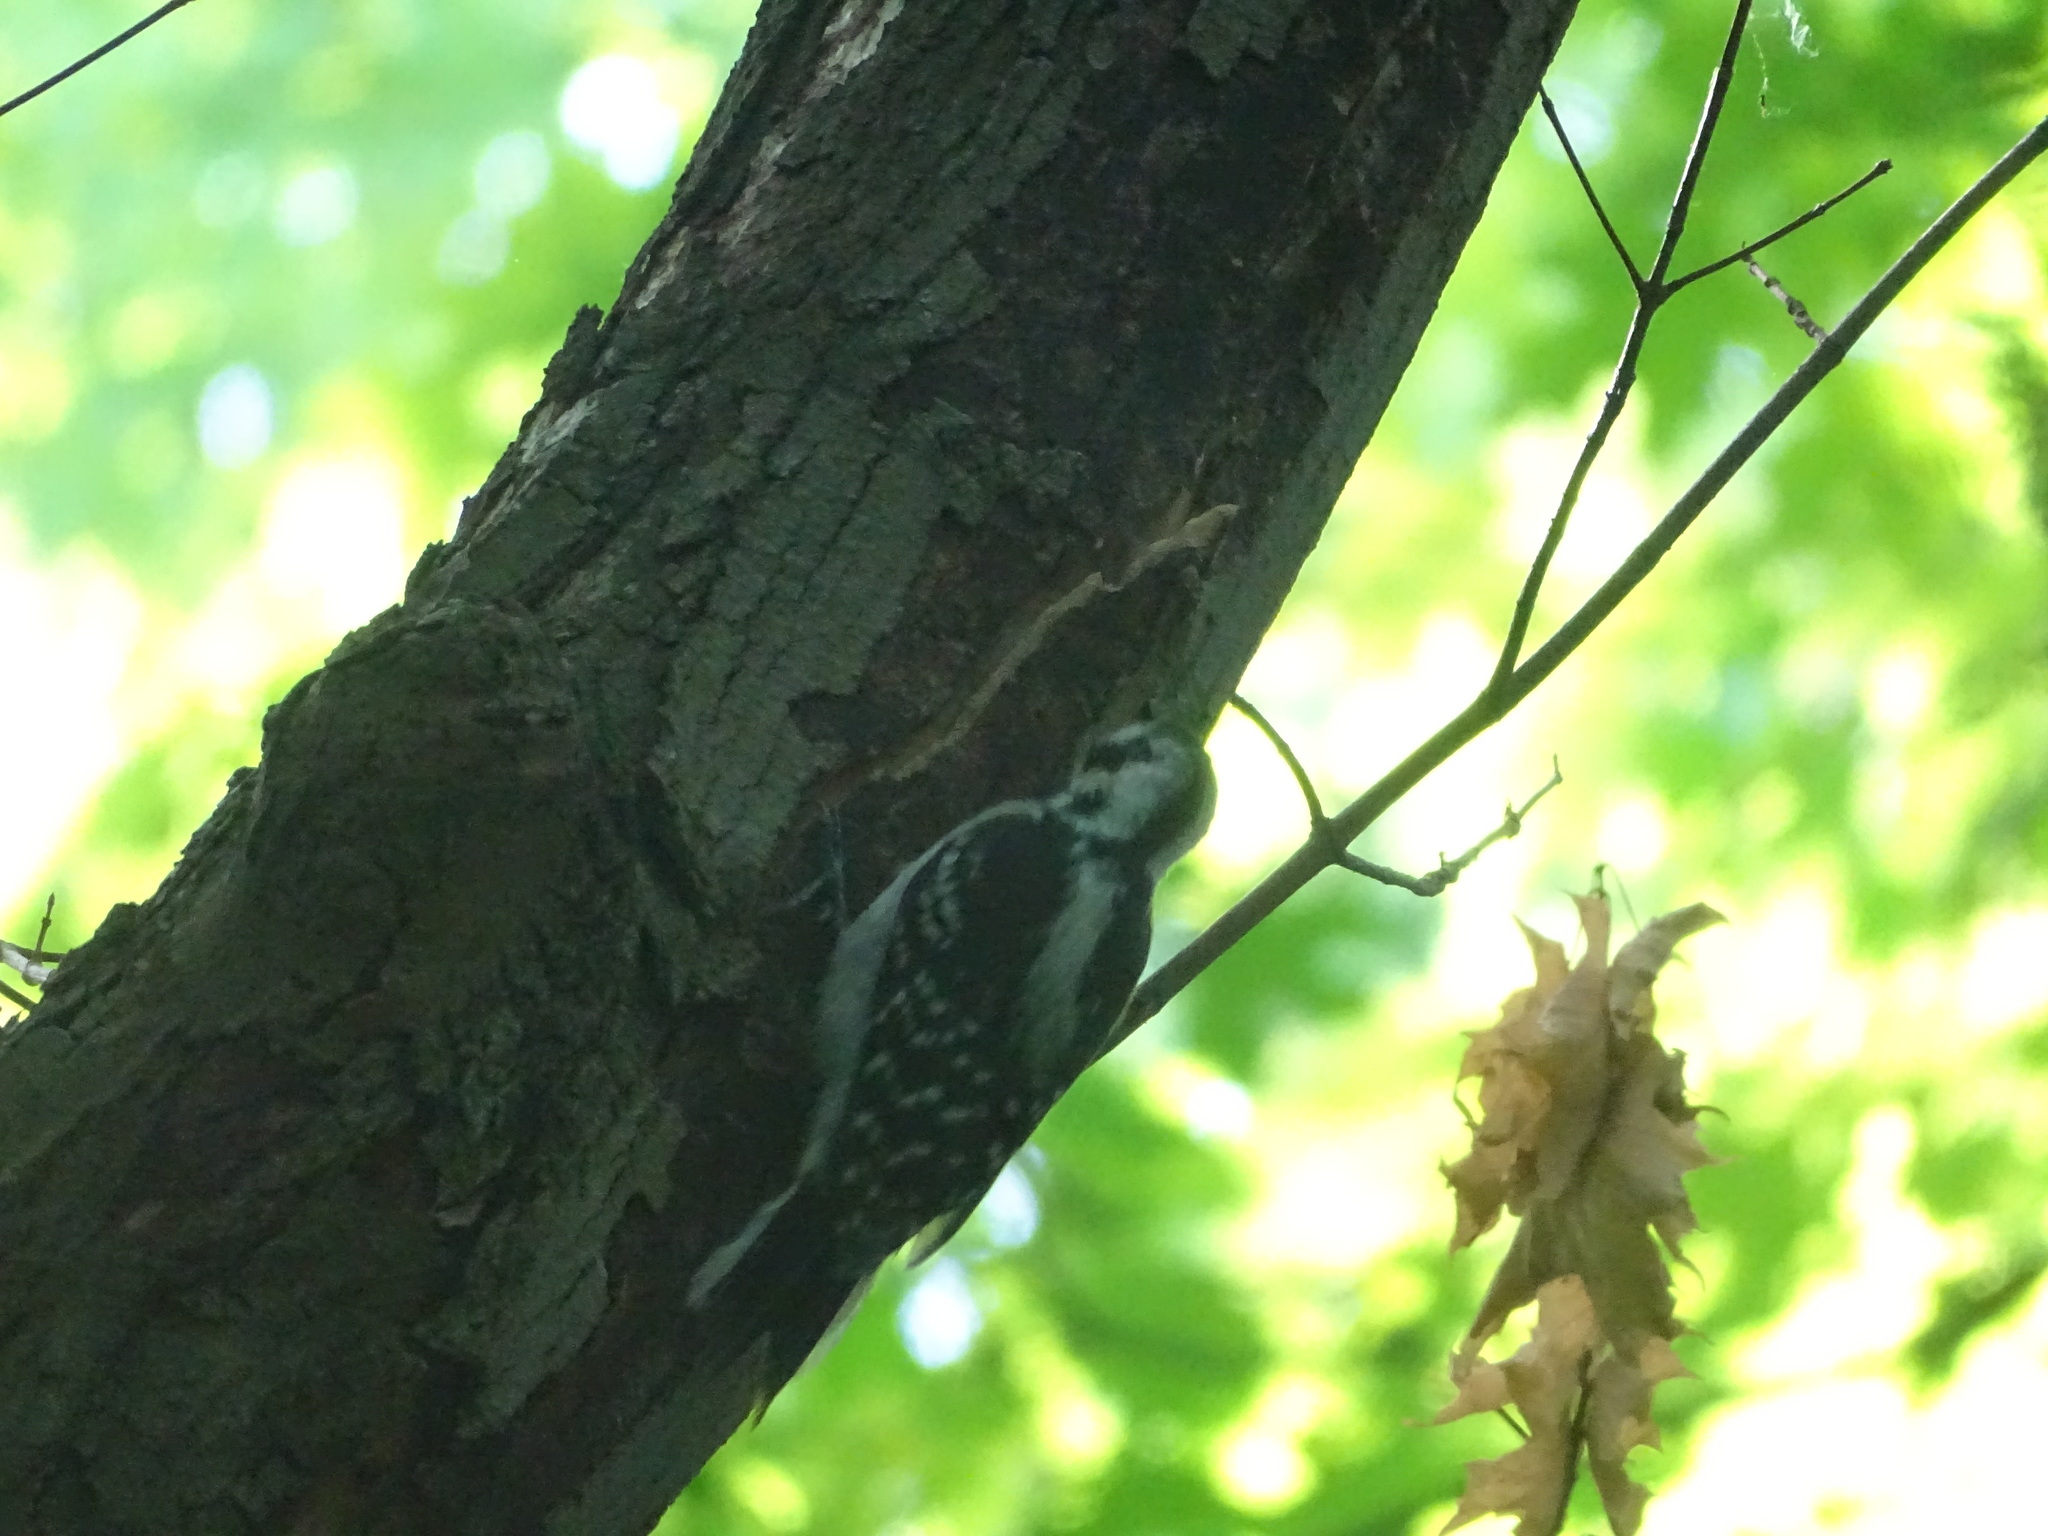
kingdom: Animalia
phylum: Chordata
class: Aves
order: Piciformes
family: Picidae
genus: Leuconotopicus
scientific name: Leuconotopicus villosus
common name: Hairy woodpecker
